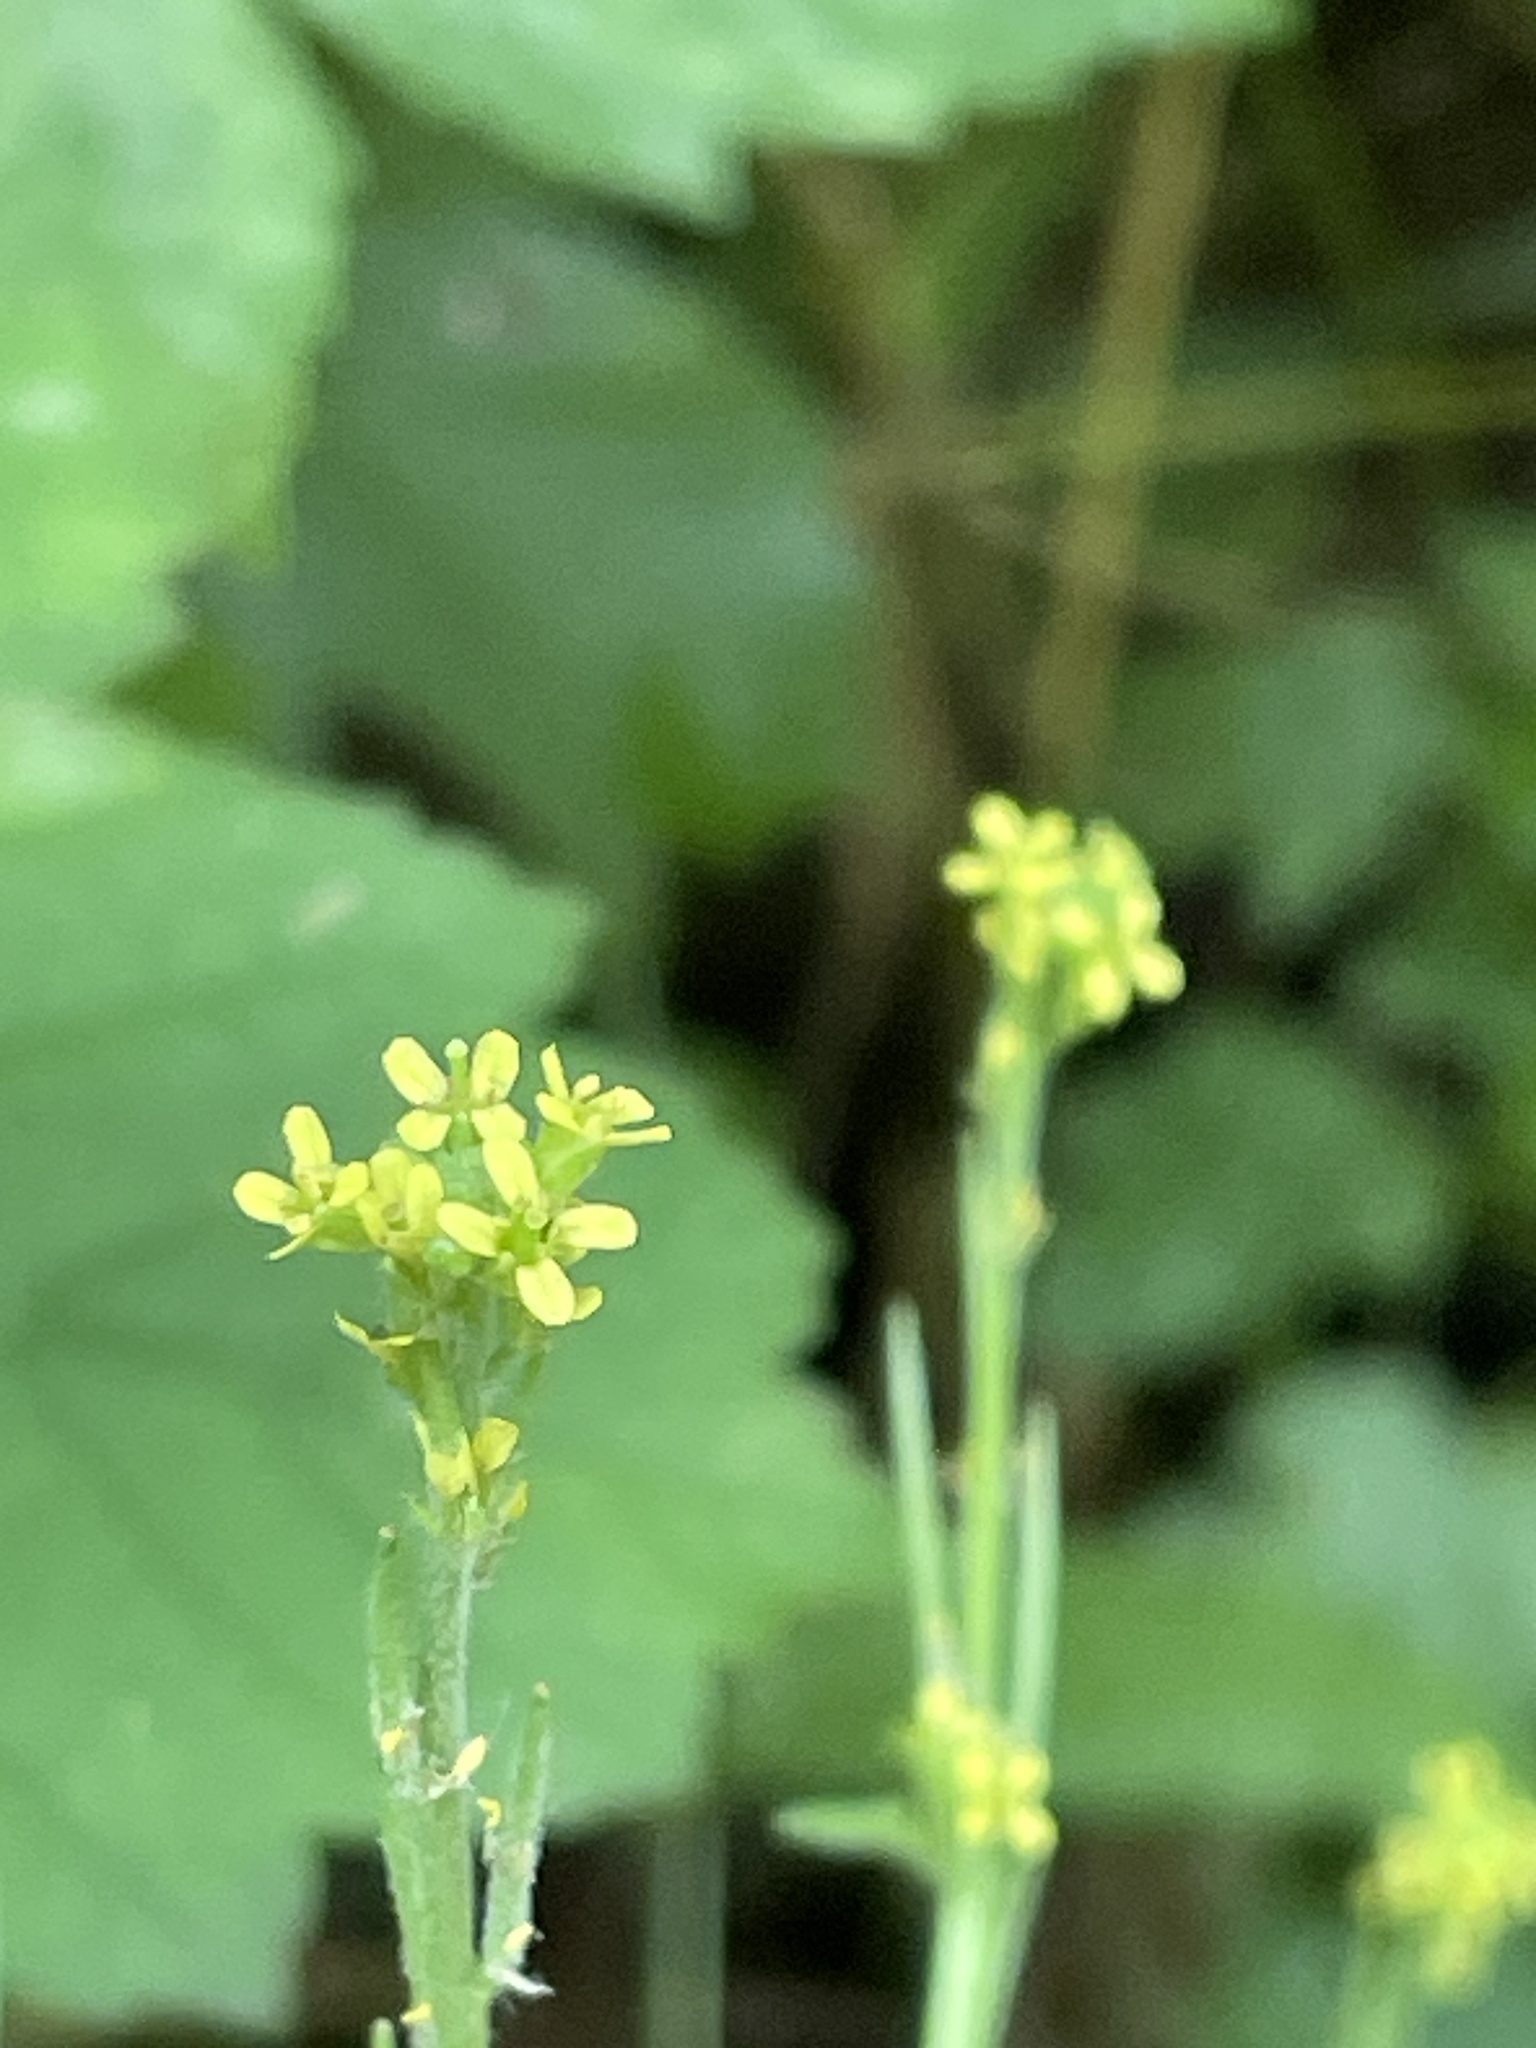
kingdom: Plantae
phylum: Tracheophyta
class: Magnoliopsida
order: Brassicales
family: Brassicaceae
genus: Sisymbrium
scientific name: Sisymbrium officinale
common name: Hedge mustard
